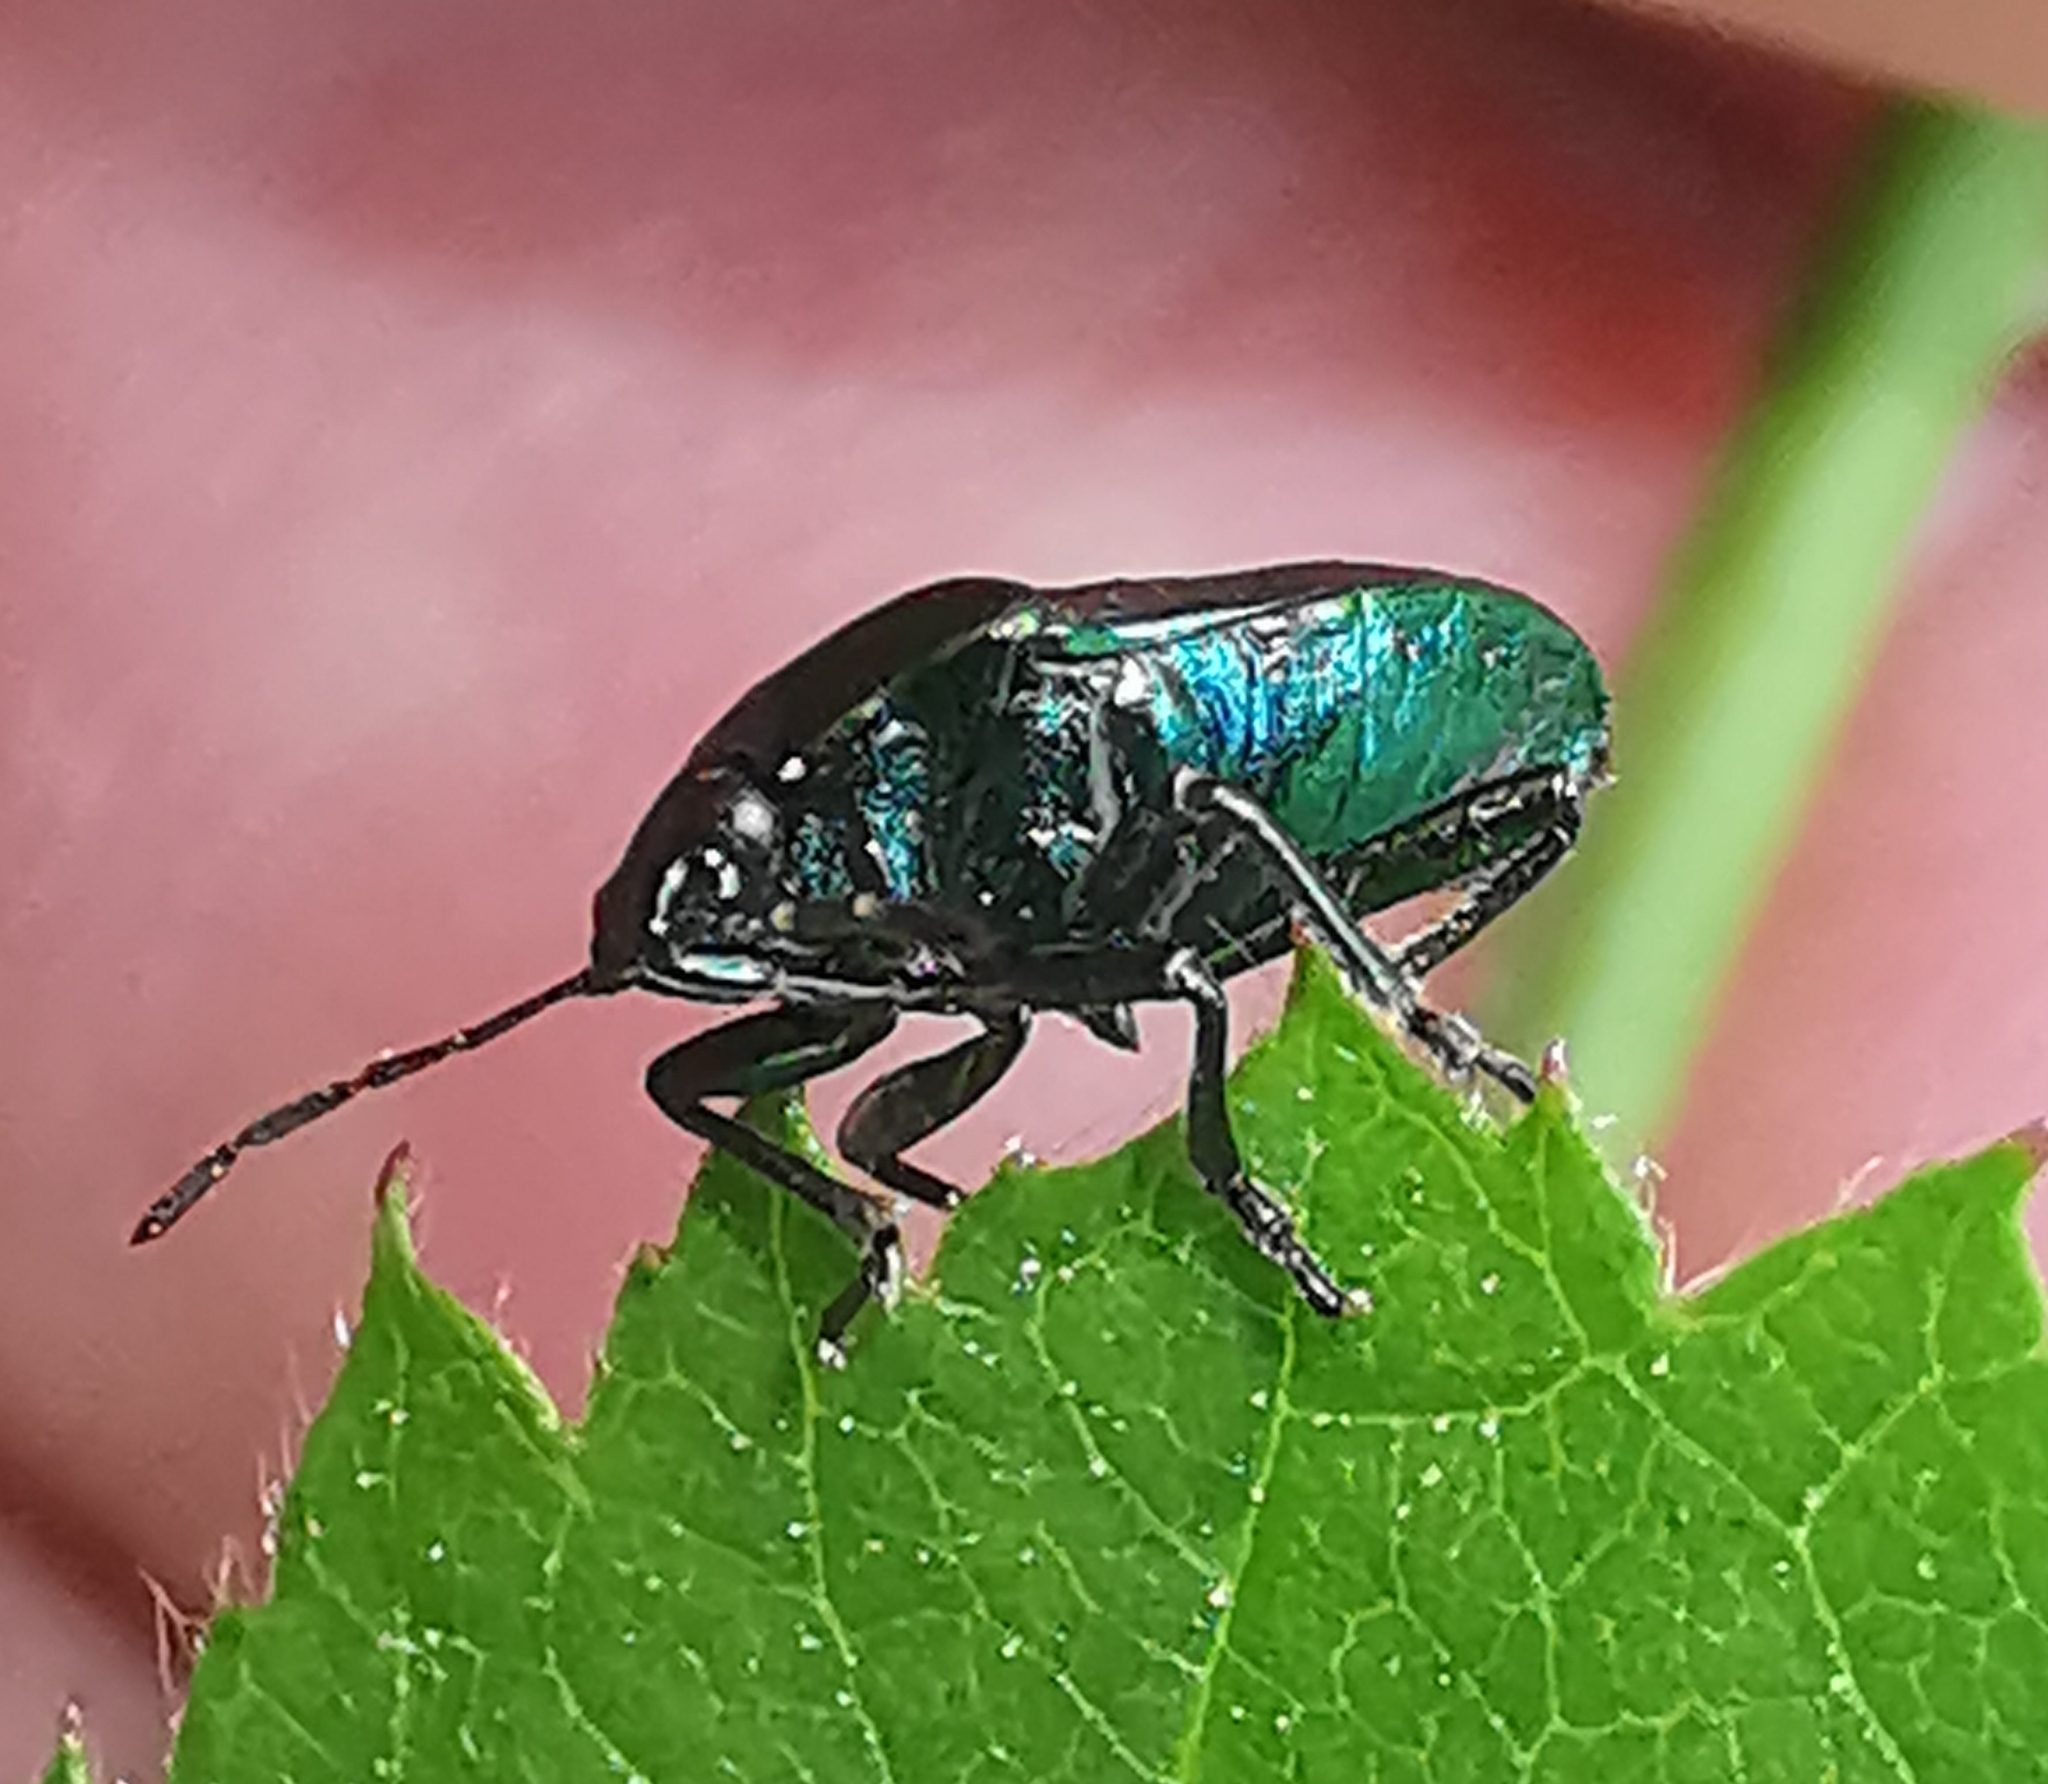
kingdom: Animalia
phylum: Arthropoda
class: Insecta
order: Hemiptera
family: Pentatomidae
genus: Zicrona
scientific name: Zicrona caerulea
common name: Blue shieldbug
